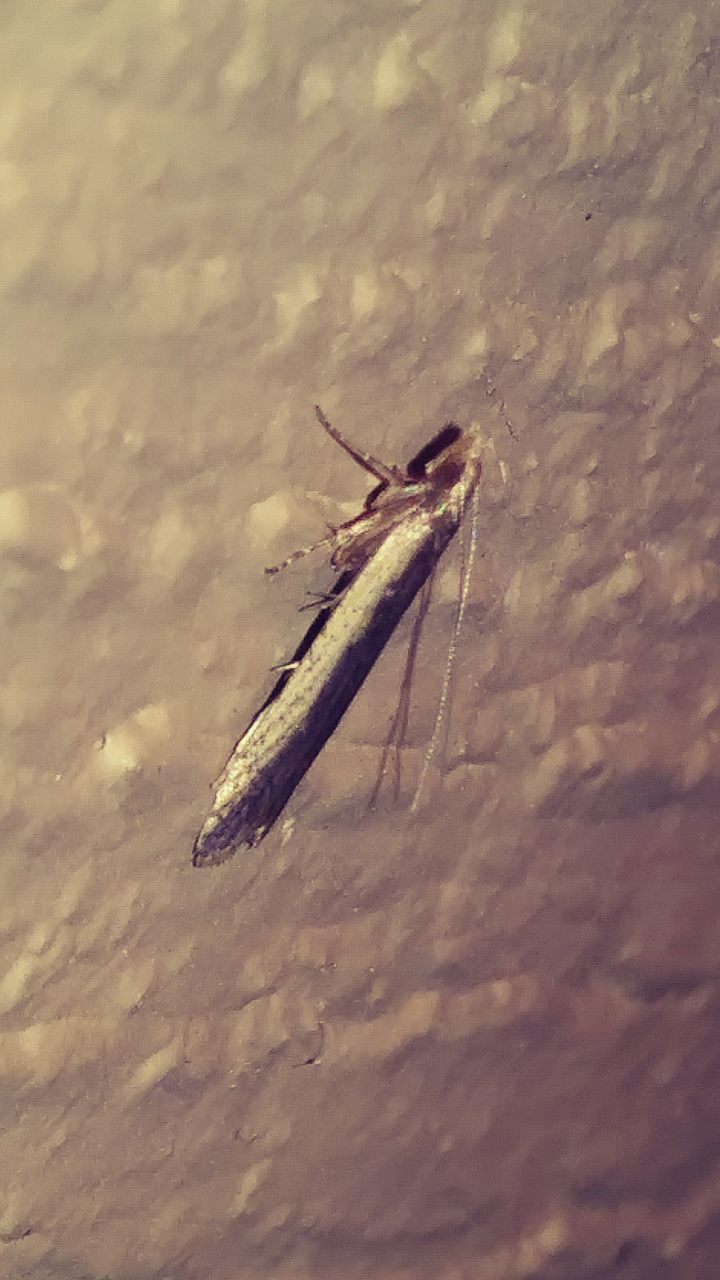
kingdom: Animalia
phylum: Arthropoda
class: Insecta
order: Lepidoptera
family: Gelechiidae
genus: Dichomeris
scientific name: Dichomeris ligulella
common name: Moth
